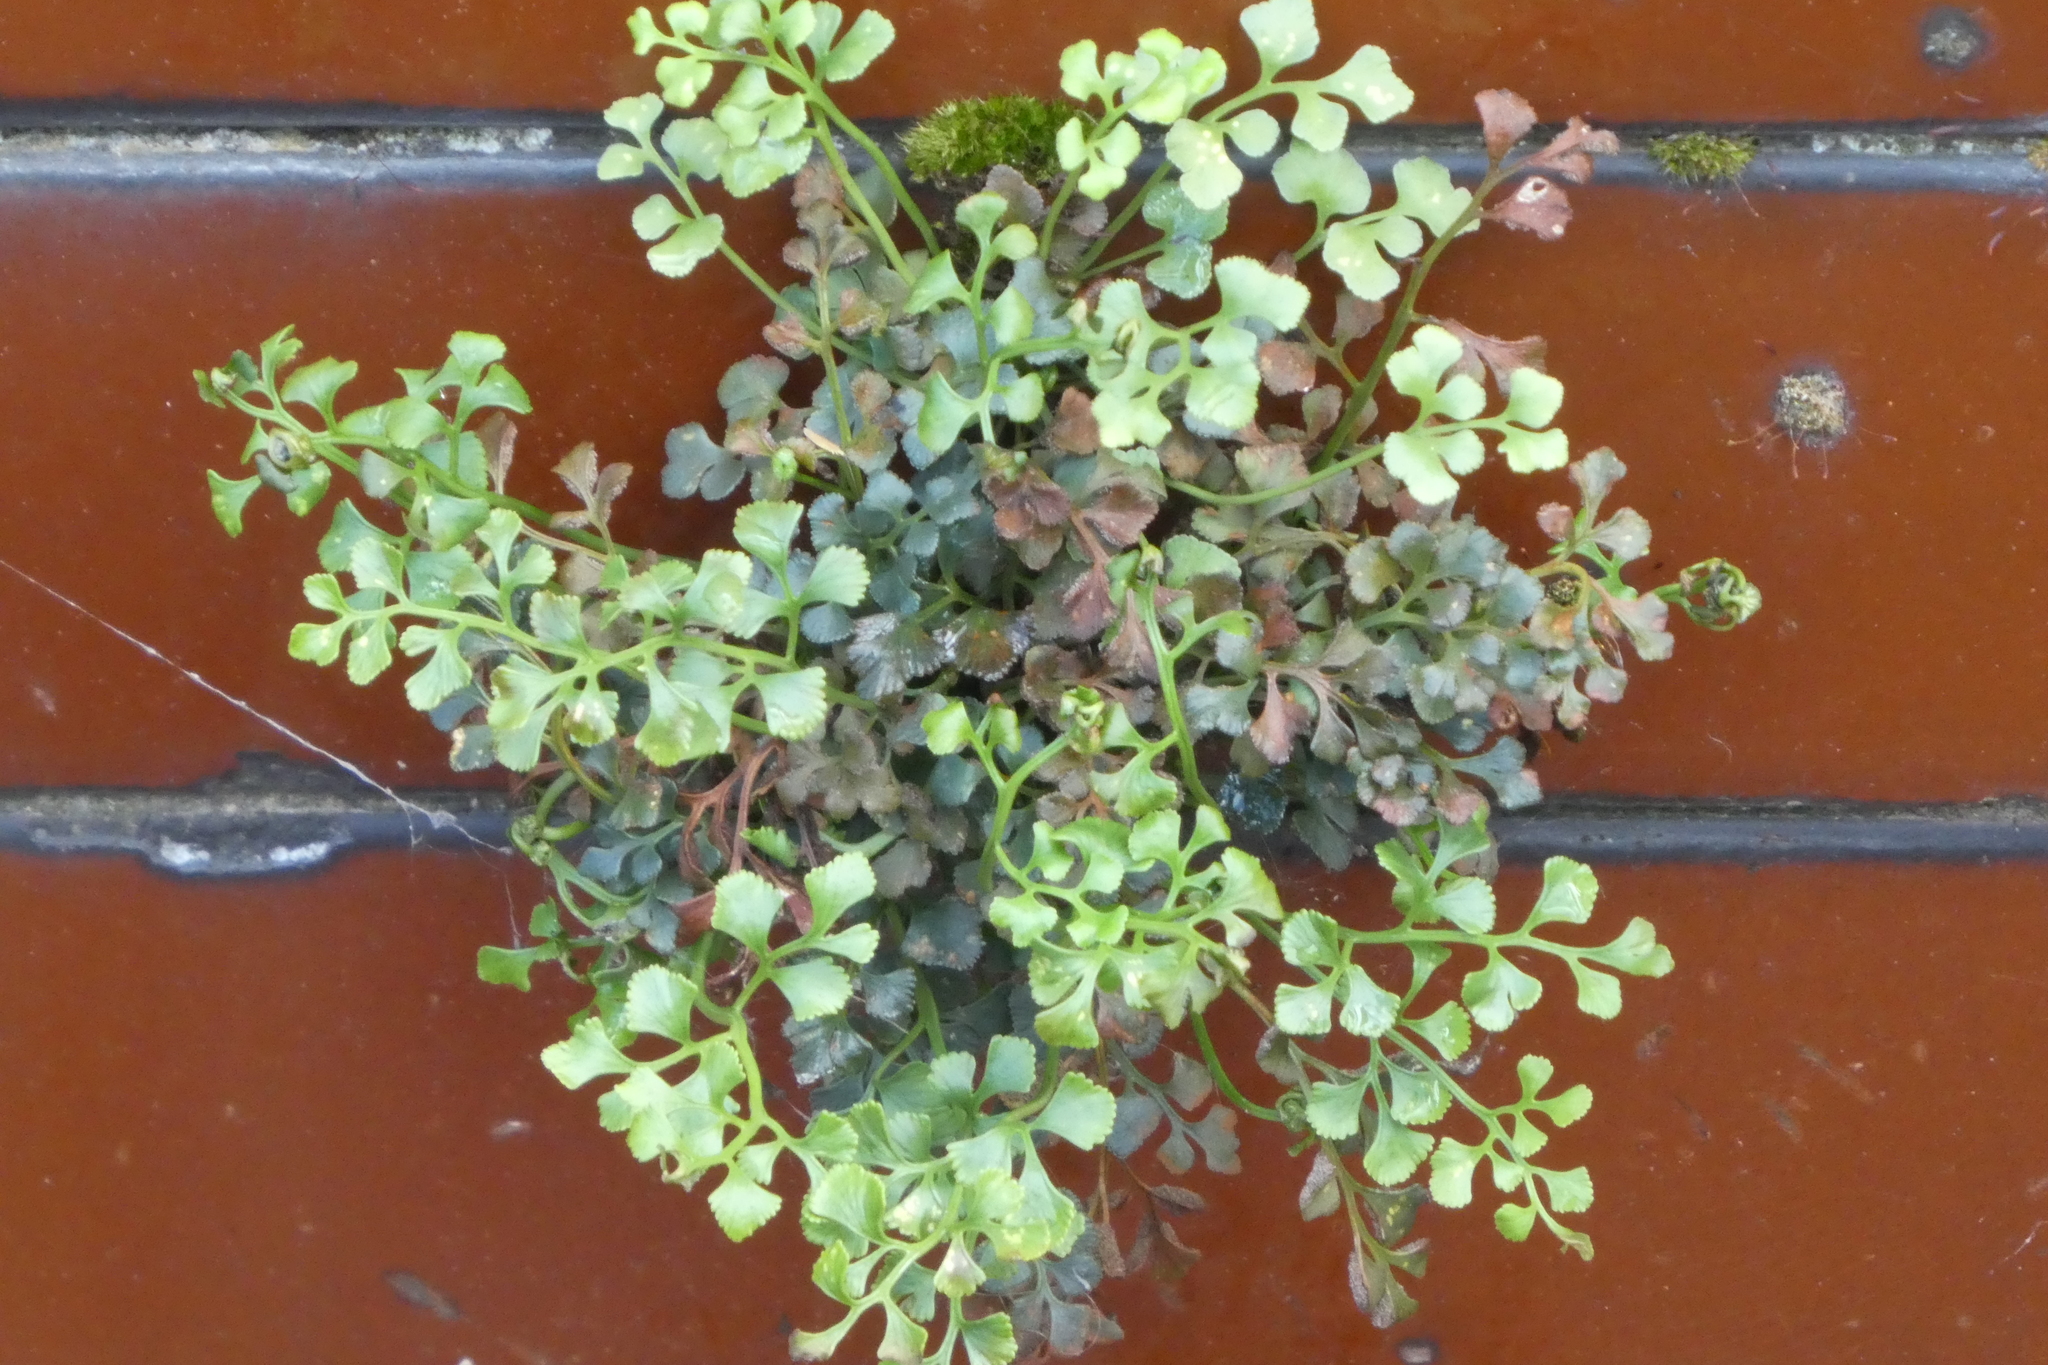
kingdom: Plantae
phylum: Tracheophyta
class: Polypodiopsida
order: Polypodiales
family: Aspleniaceae
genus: Asplenium
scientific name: Asplenium ruta-muraria
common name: Wall-rue
